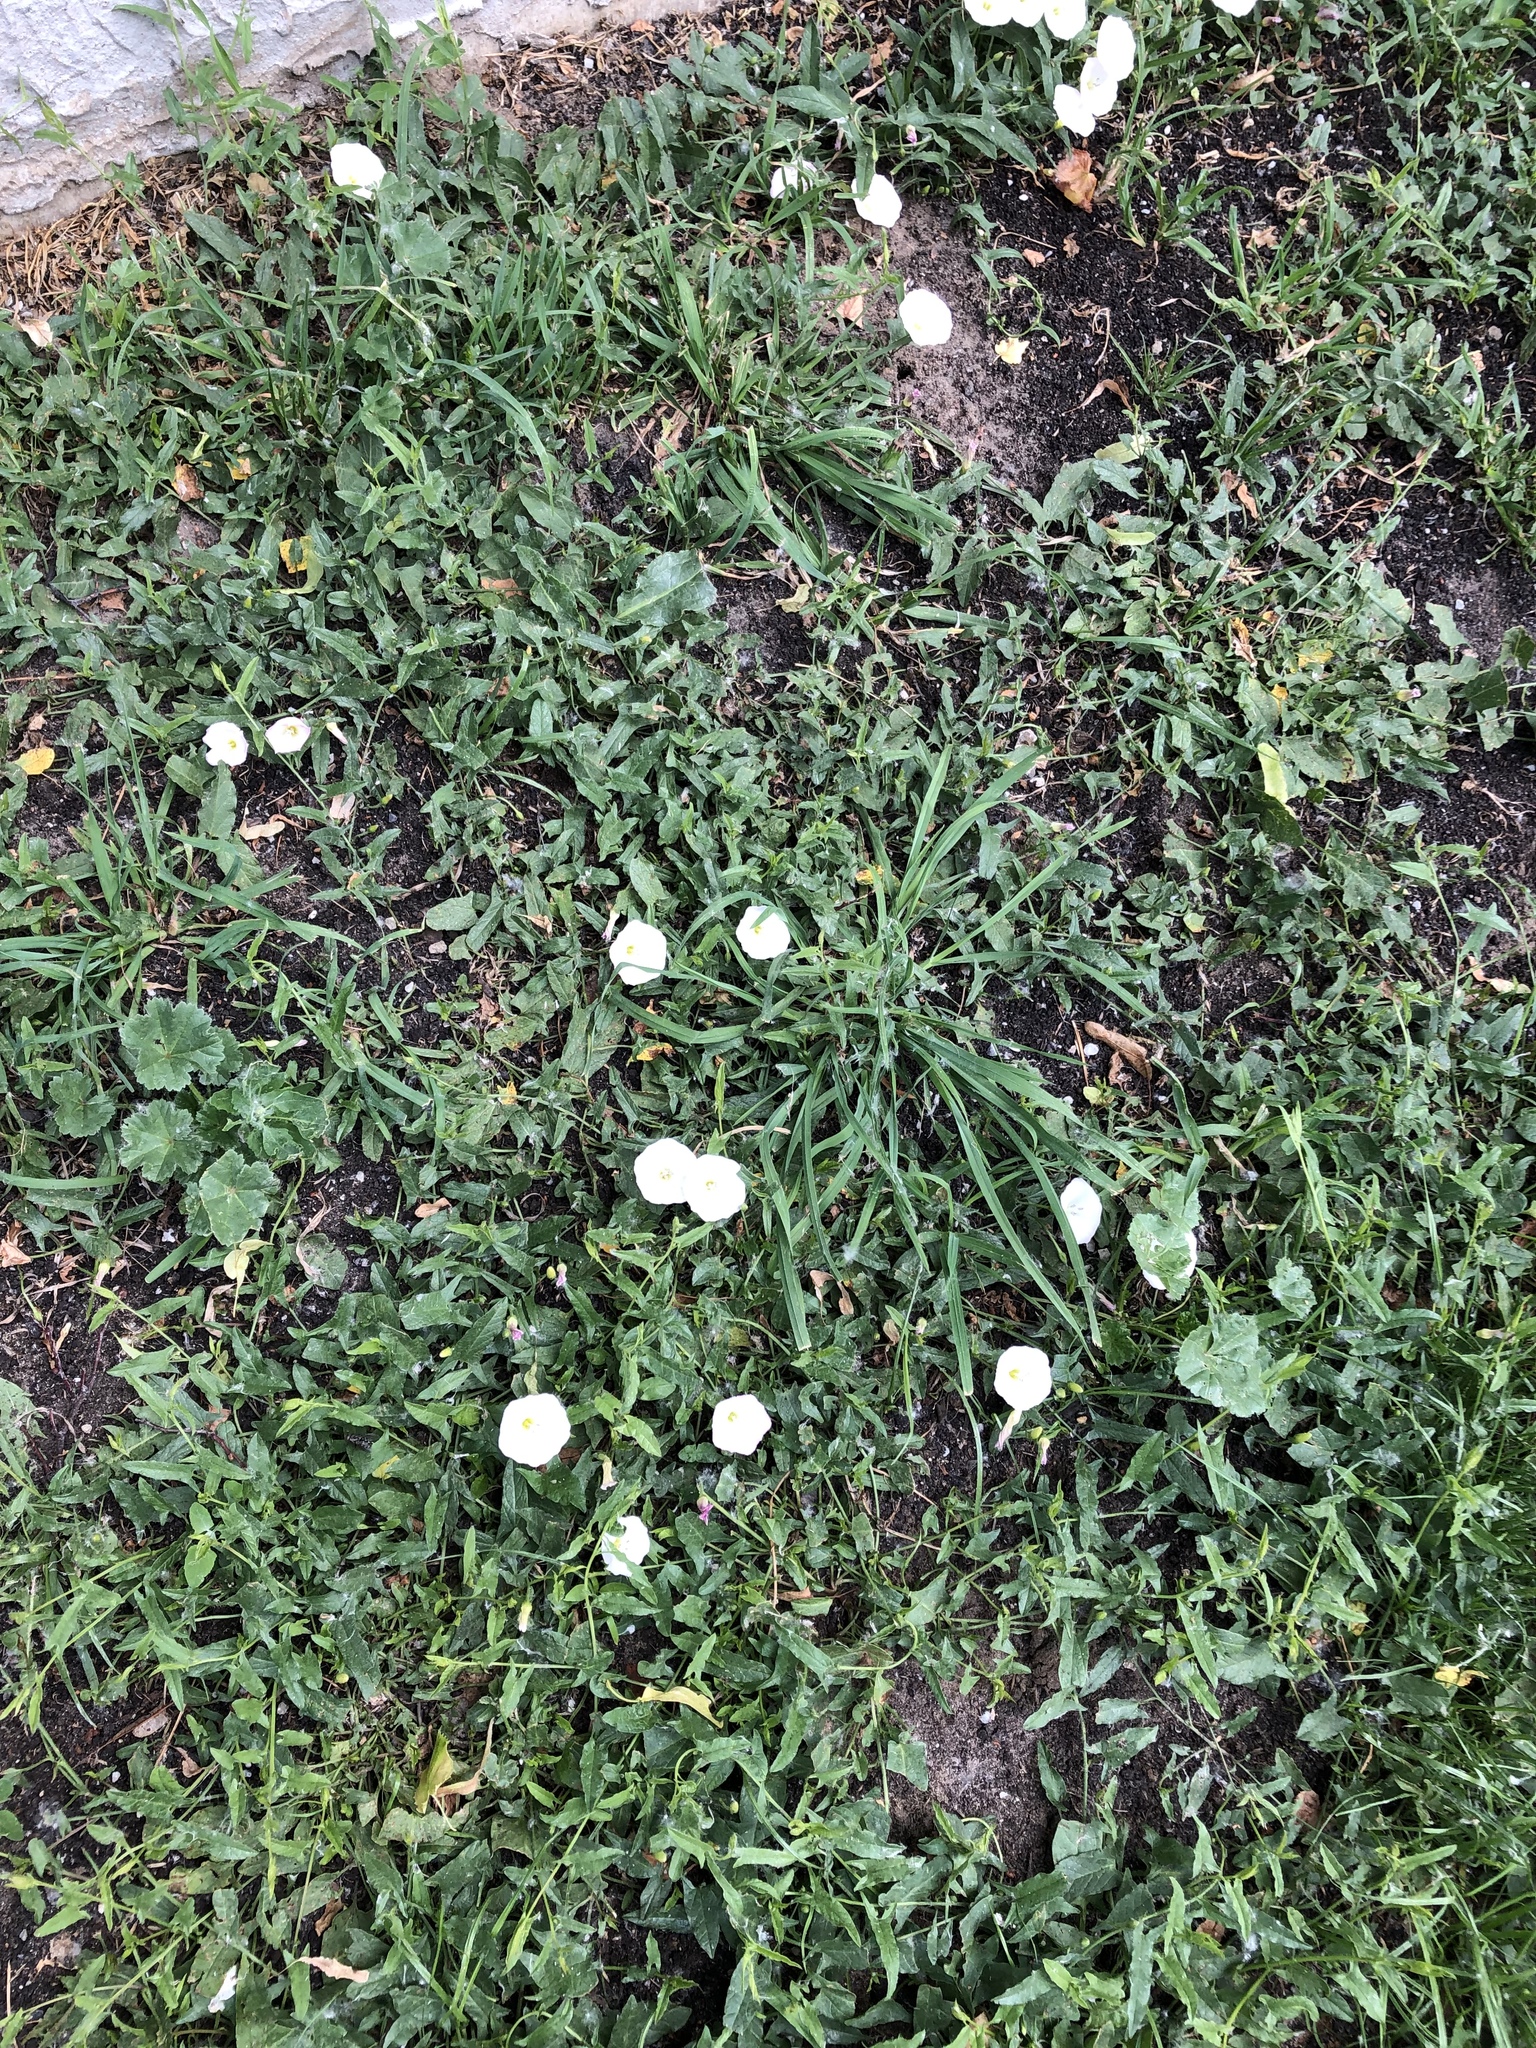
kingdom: Plantae
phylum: Tracheophyta
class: Magnoliopsida
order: Solanales
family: Convolvulaceae
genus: Convolvulus
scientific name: Convolvulus arvensis
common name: Field bindweed
